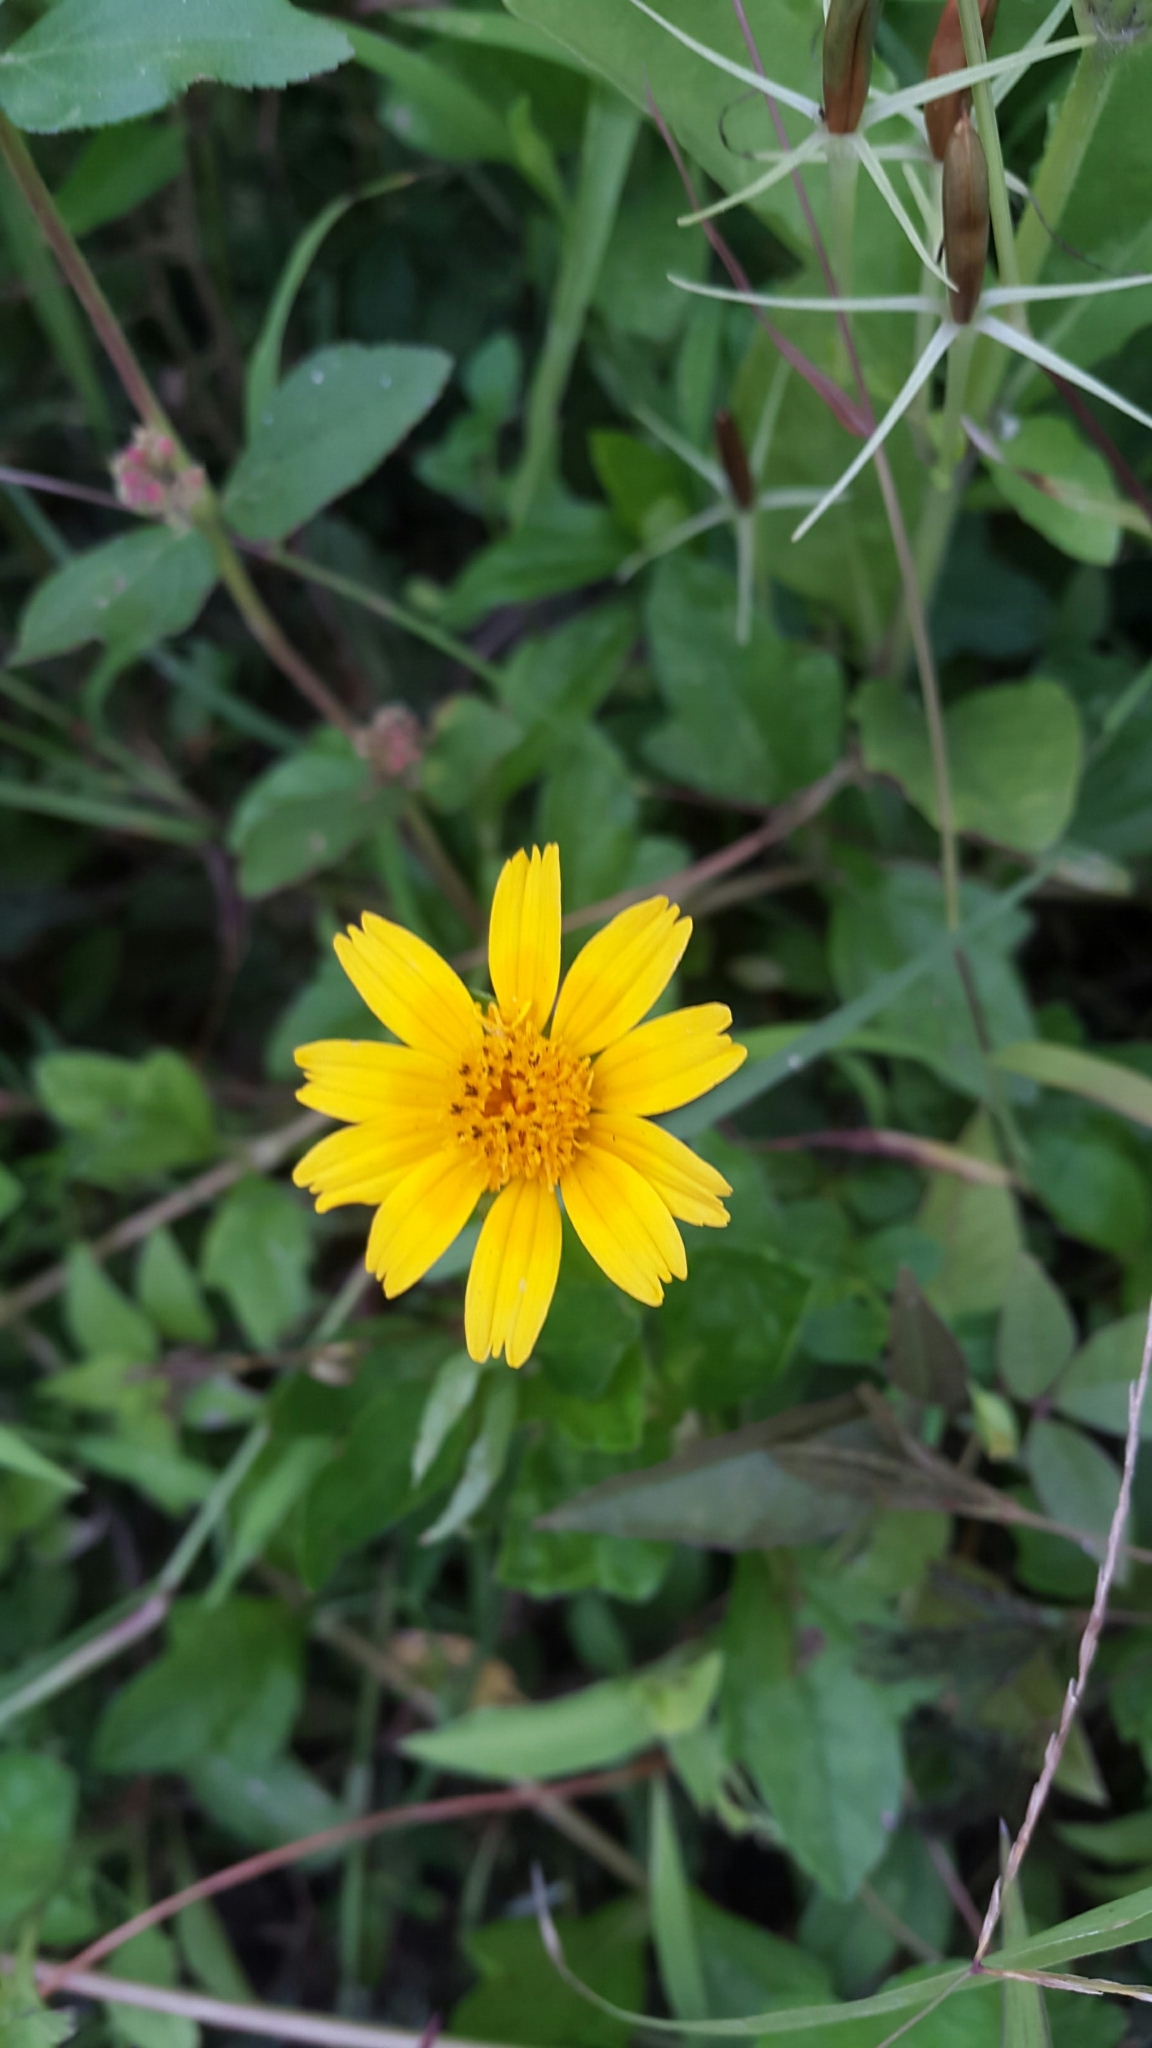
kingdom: Plantae
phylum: Tracheophyta
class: Magnoliopsida
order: Asterales
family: Asteraceae
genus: Sphagneticola
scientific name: Sphagneticola trilobata
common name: Bay biscayne creeping-oxeye
